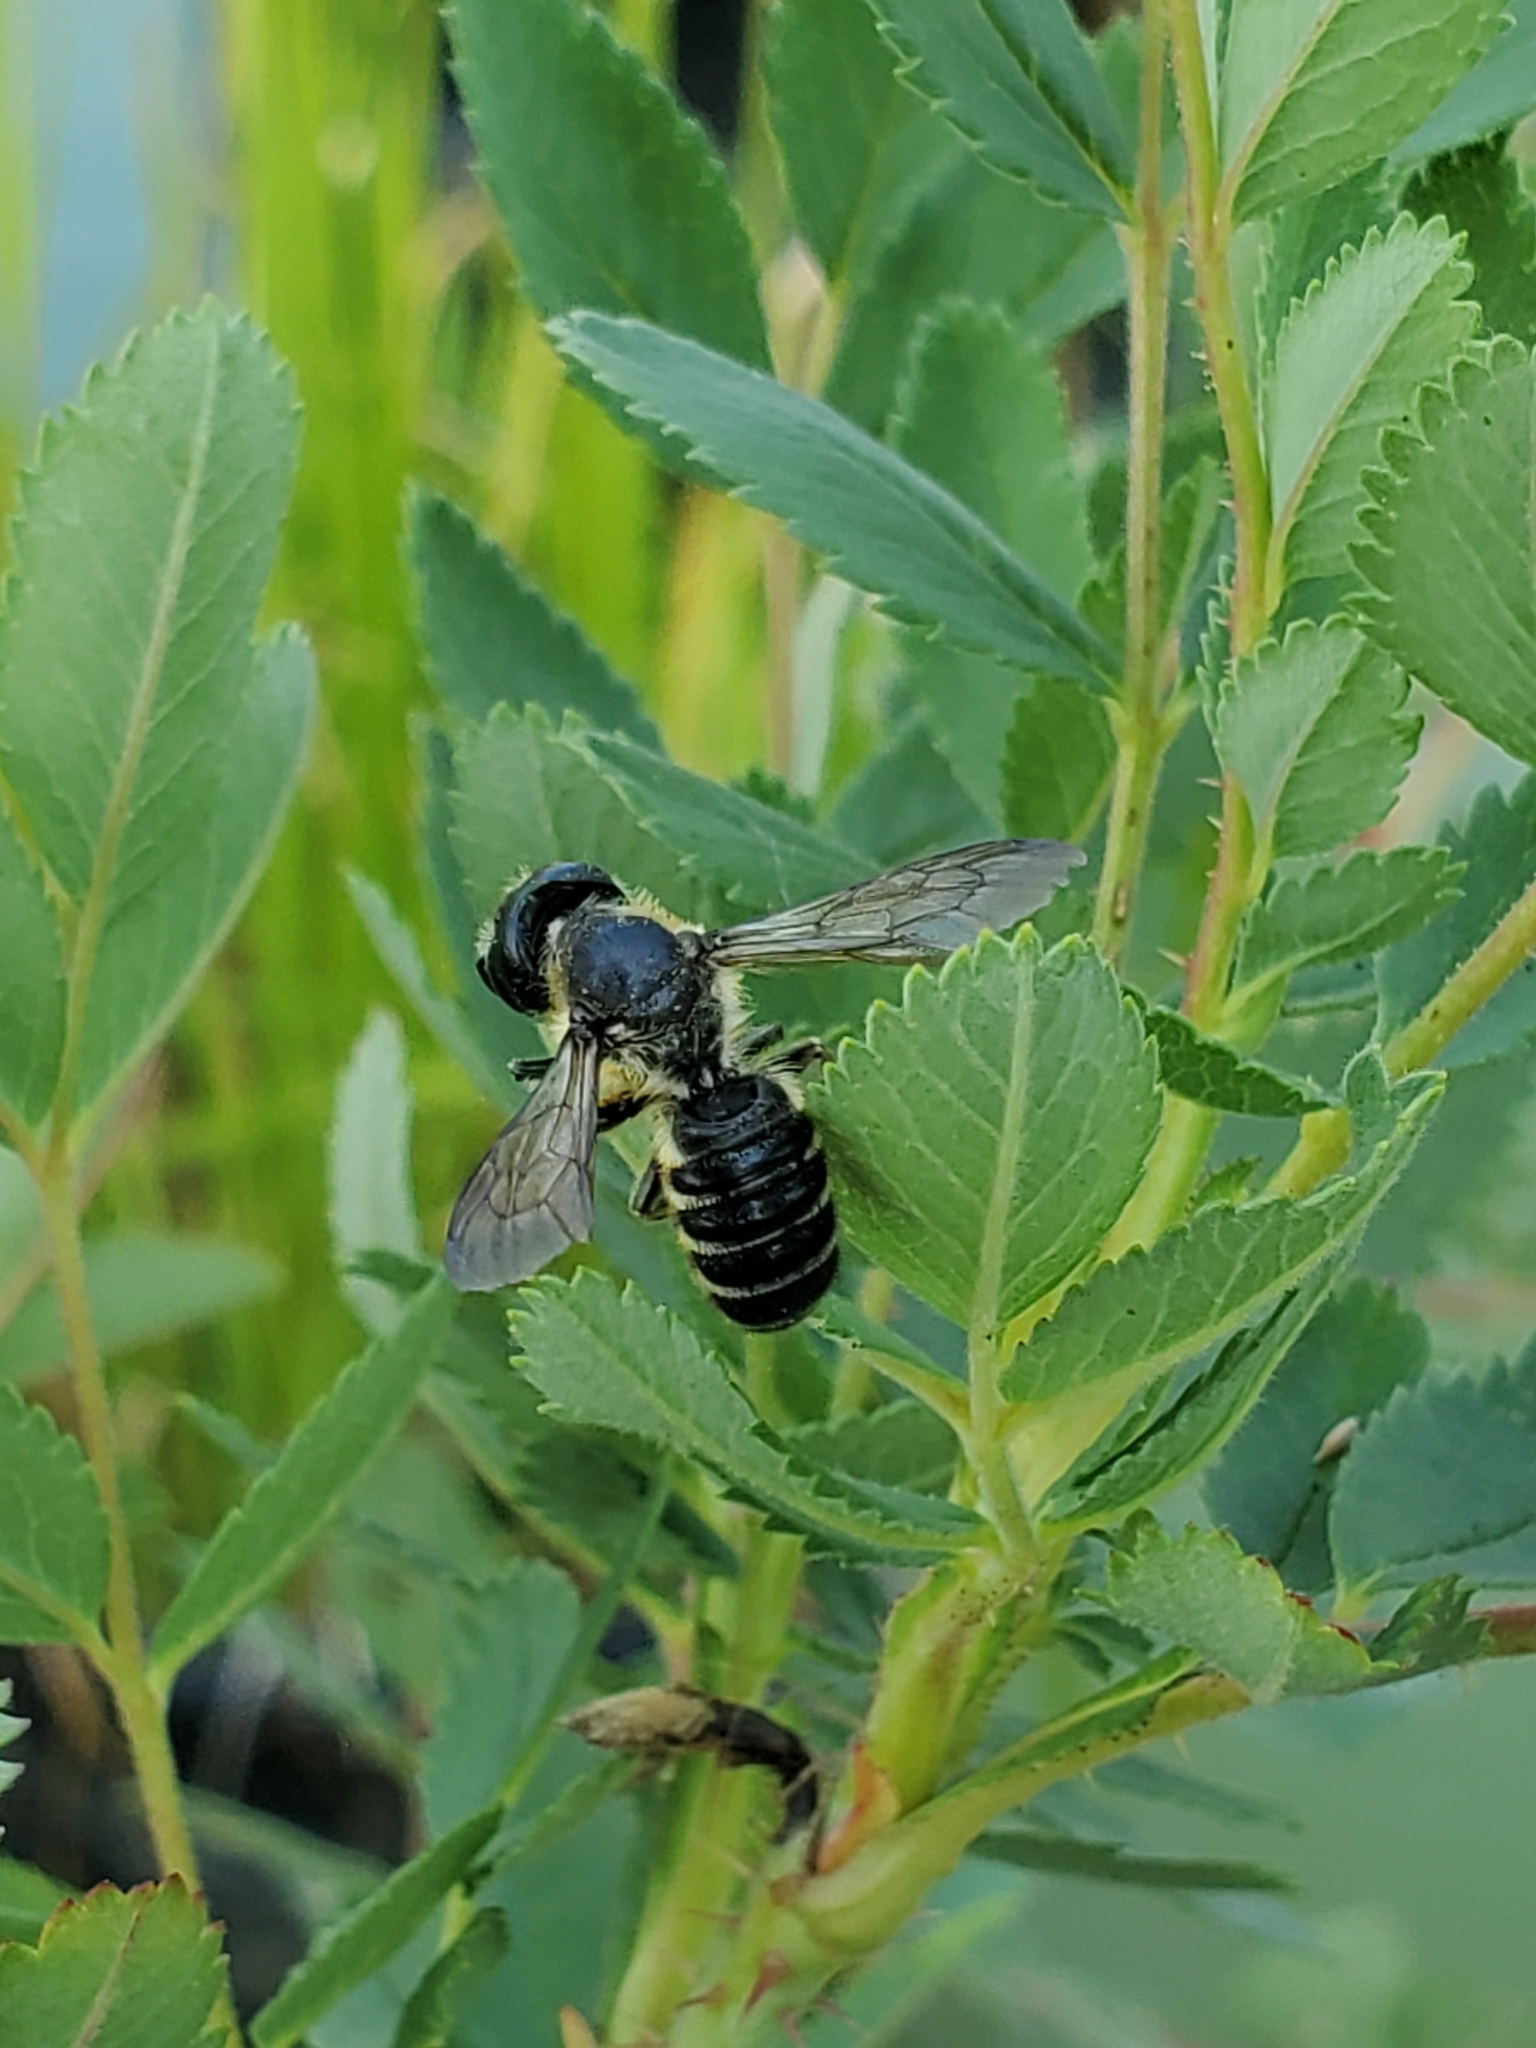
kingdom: Animalia
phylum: Arthropoda
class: Insecta
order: Hymenoptera
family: Megachilidae
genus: Megachile
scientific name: Megachile pugnata
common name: Pugnacious leafcutter bee
